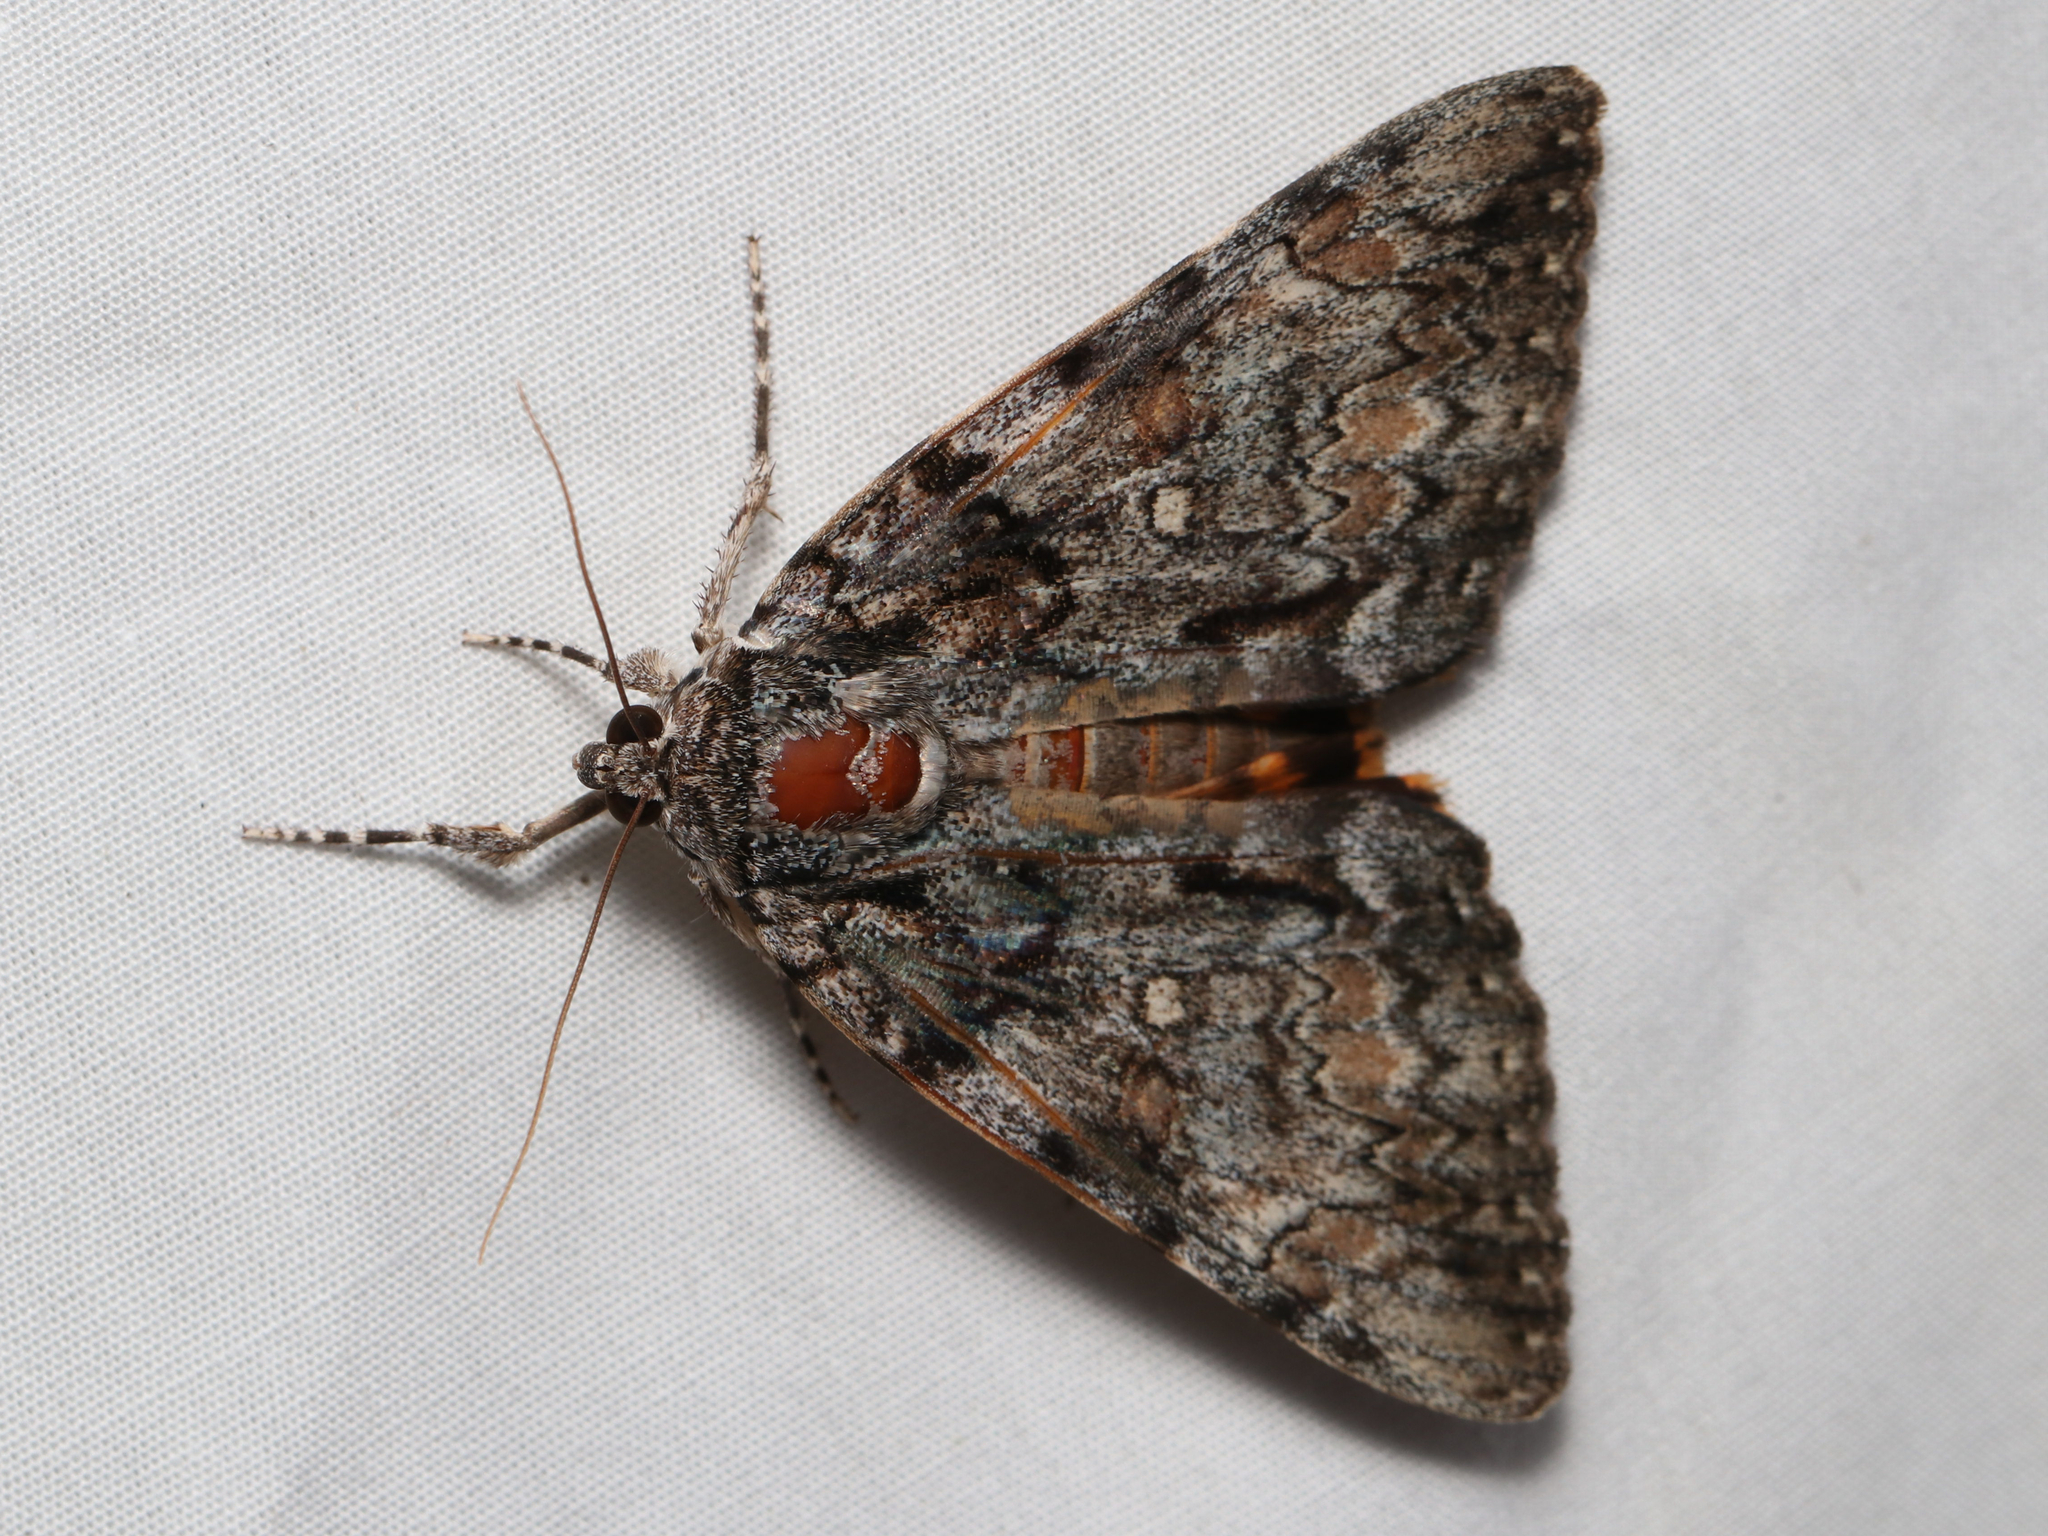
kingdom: Animalia
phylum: Arthropoda
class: Insecta
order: Lepidoptera
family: Erebidae
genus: Catocala
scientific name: Catocala palaeogama
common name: Oldwife underwing
